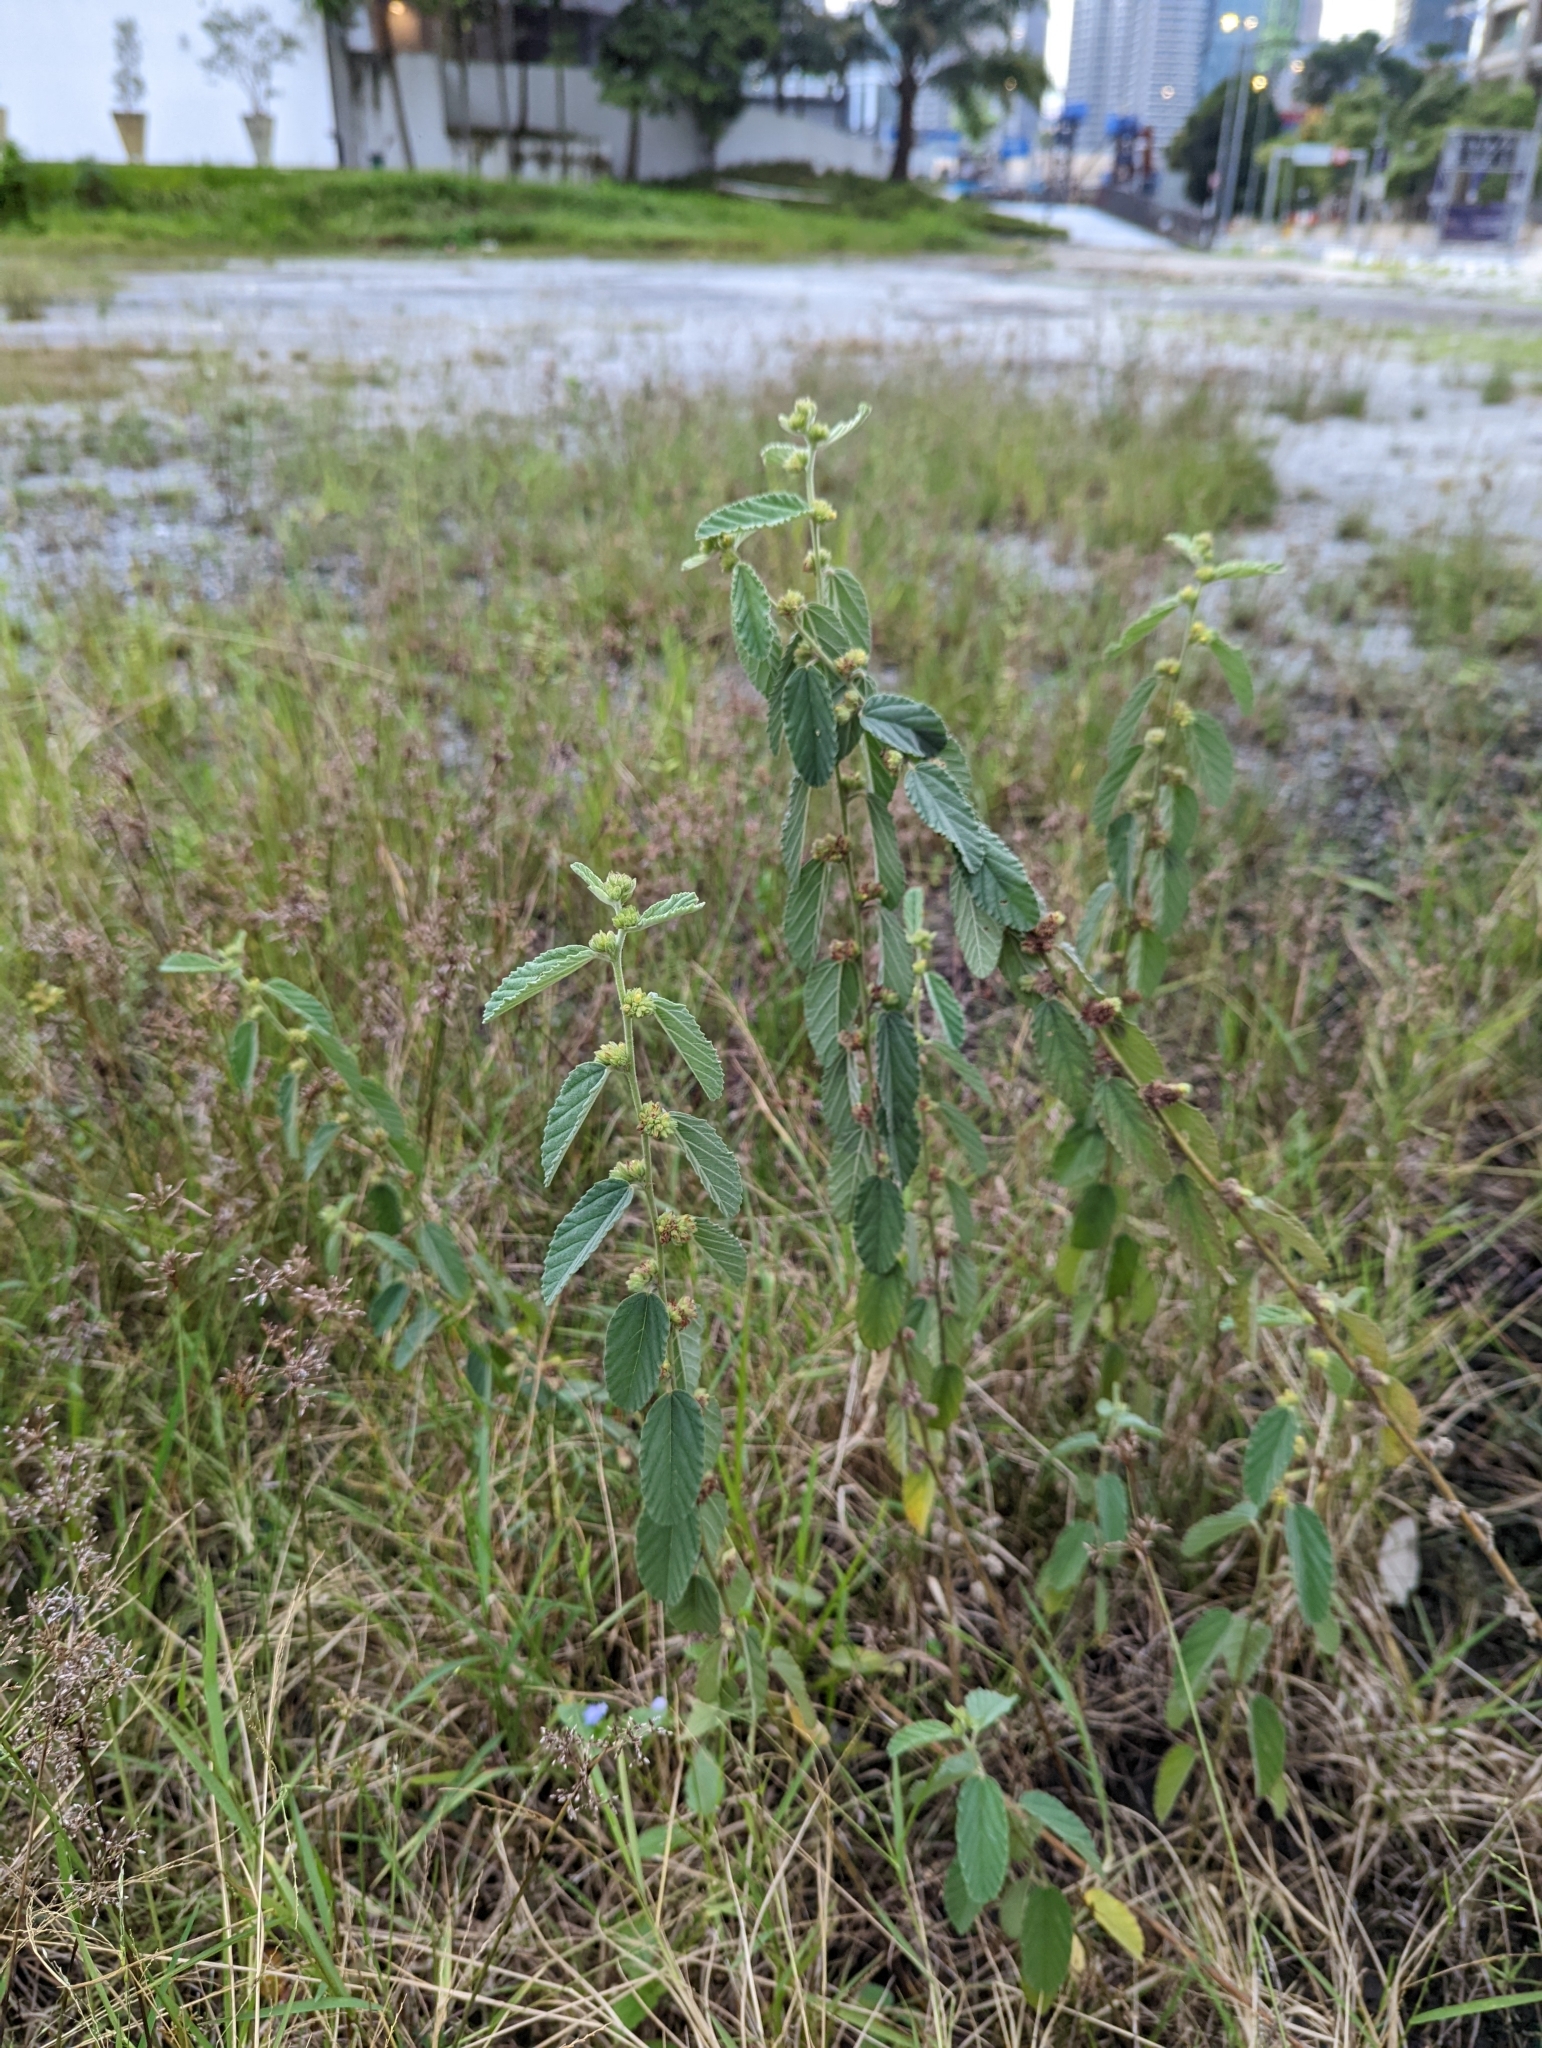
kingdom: Plantae
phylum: Tracheophyta
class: Magnoliopsida
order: Malvales
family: Malvaceae
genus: Waltheria
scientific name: Waltheria indica
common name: Leather-coat
